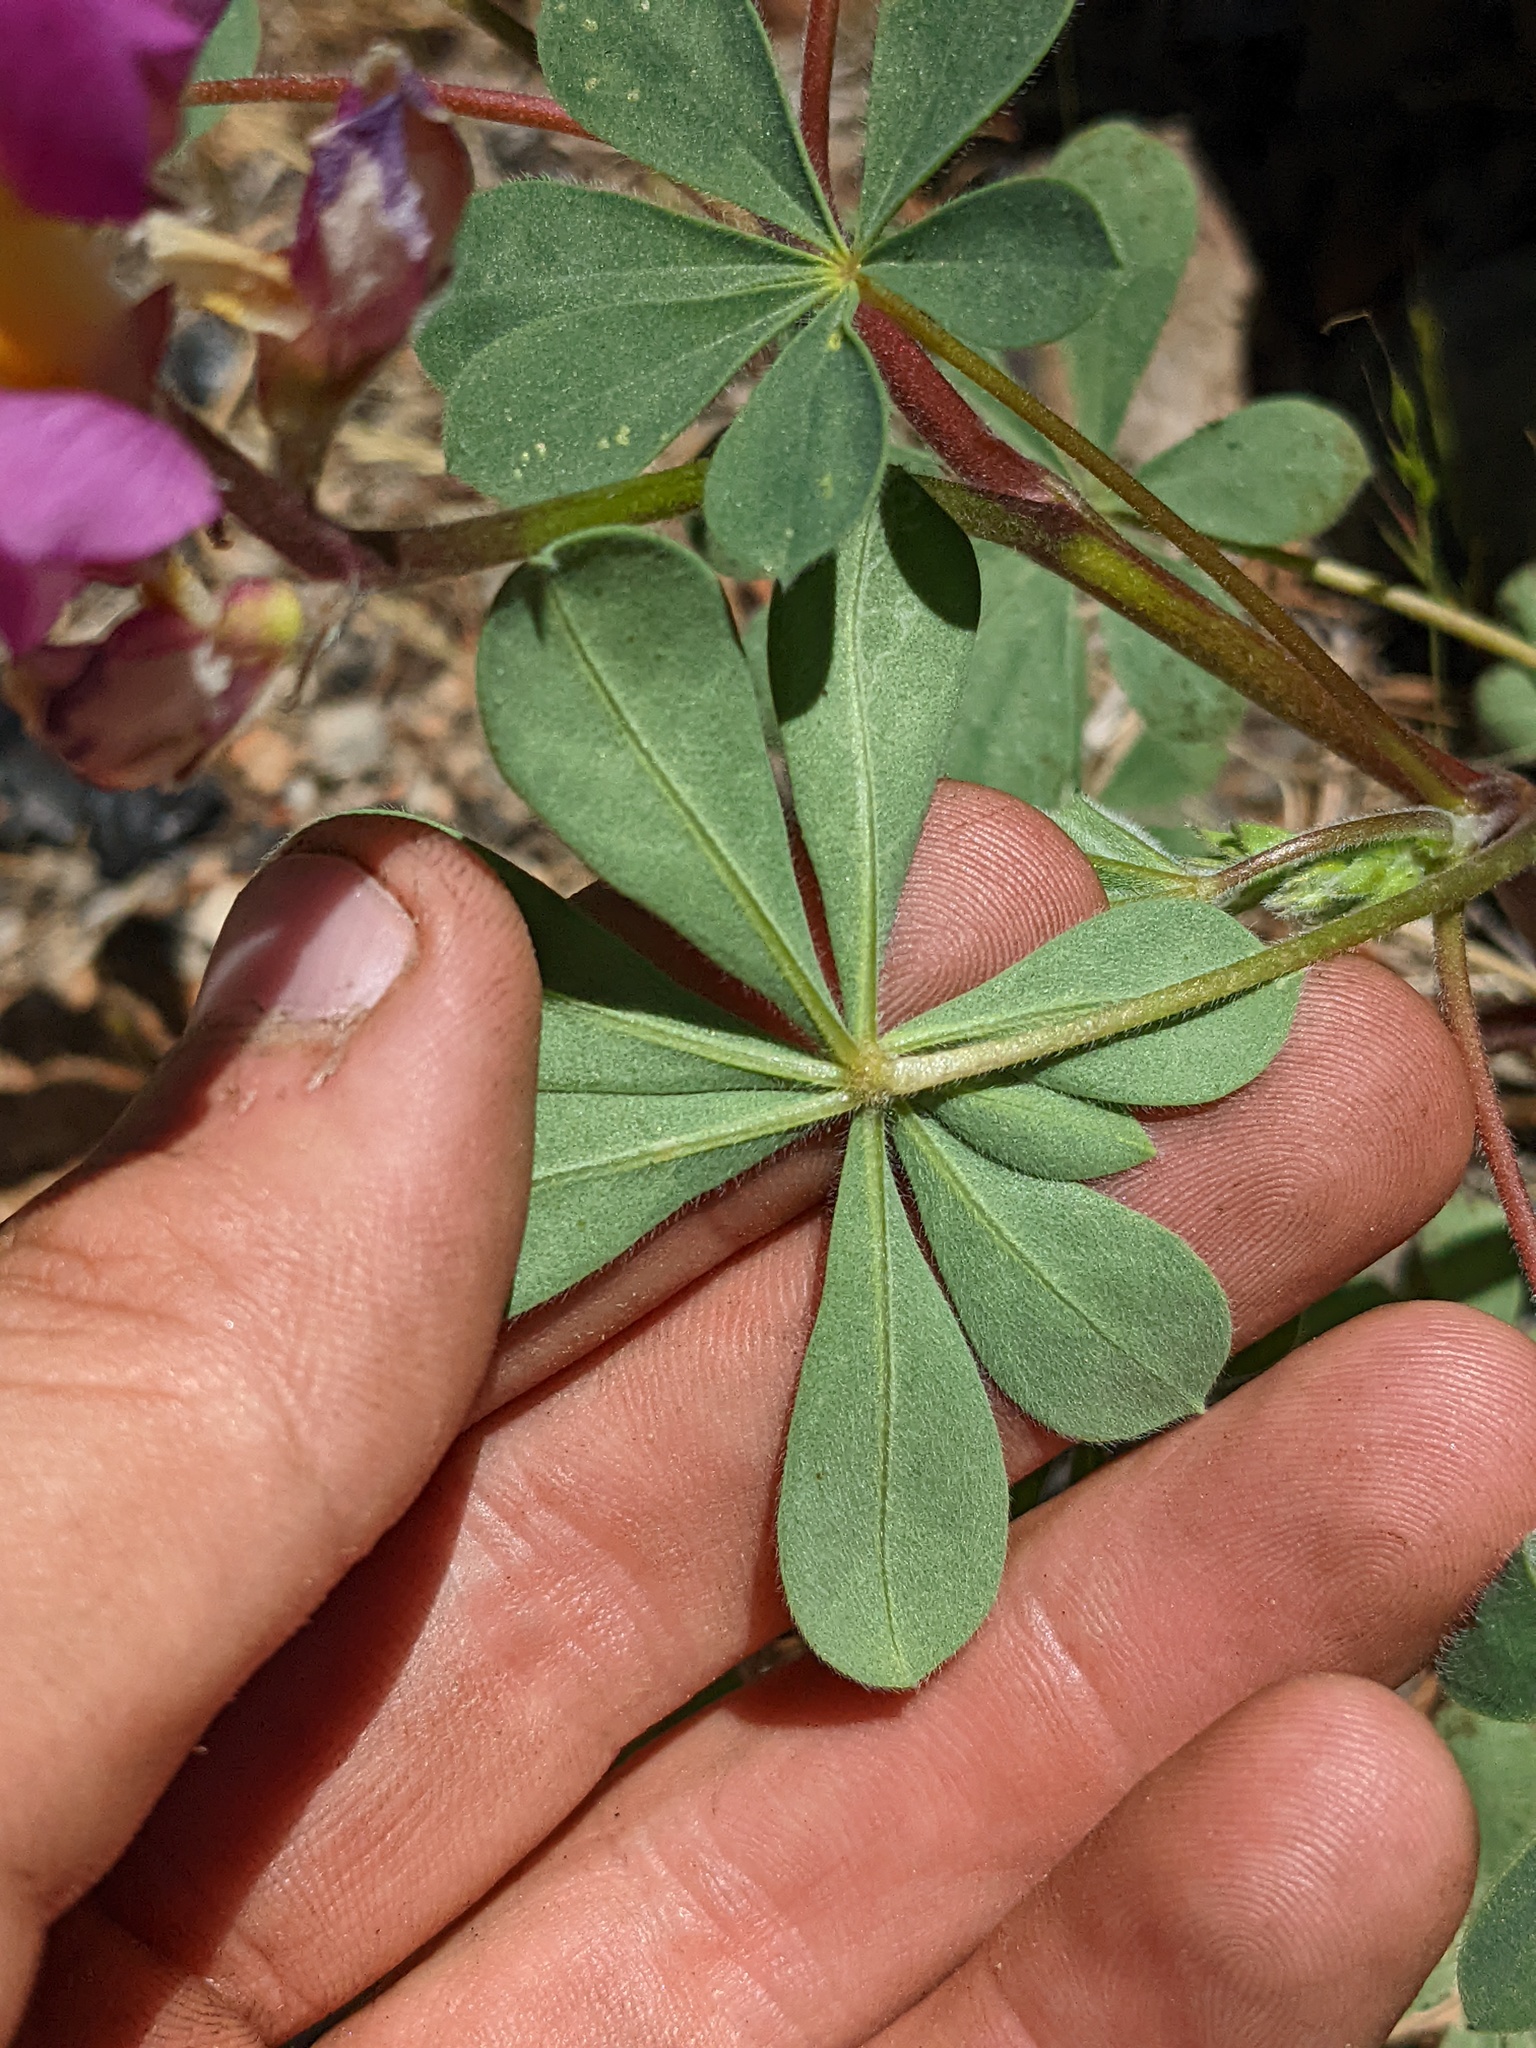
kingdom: Plantae
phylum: Tracheophyta
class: Magnoliopsida
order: Fabales
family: Fabaceae
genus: Lupinus
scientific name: Lupinus stiversii
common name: Harlequin lupine
